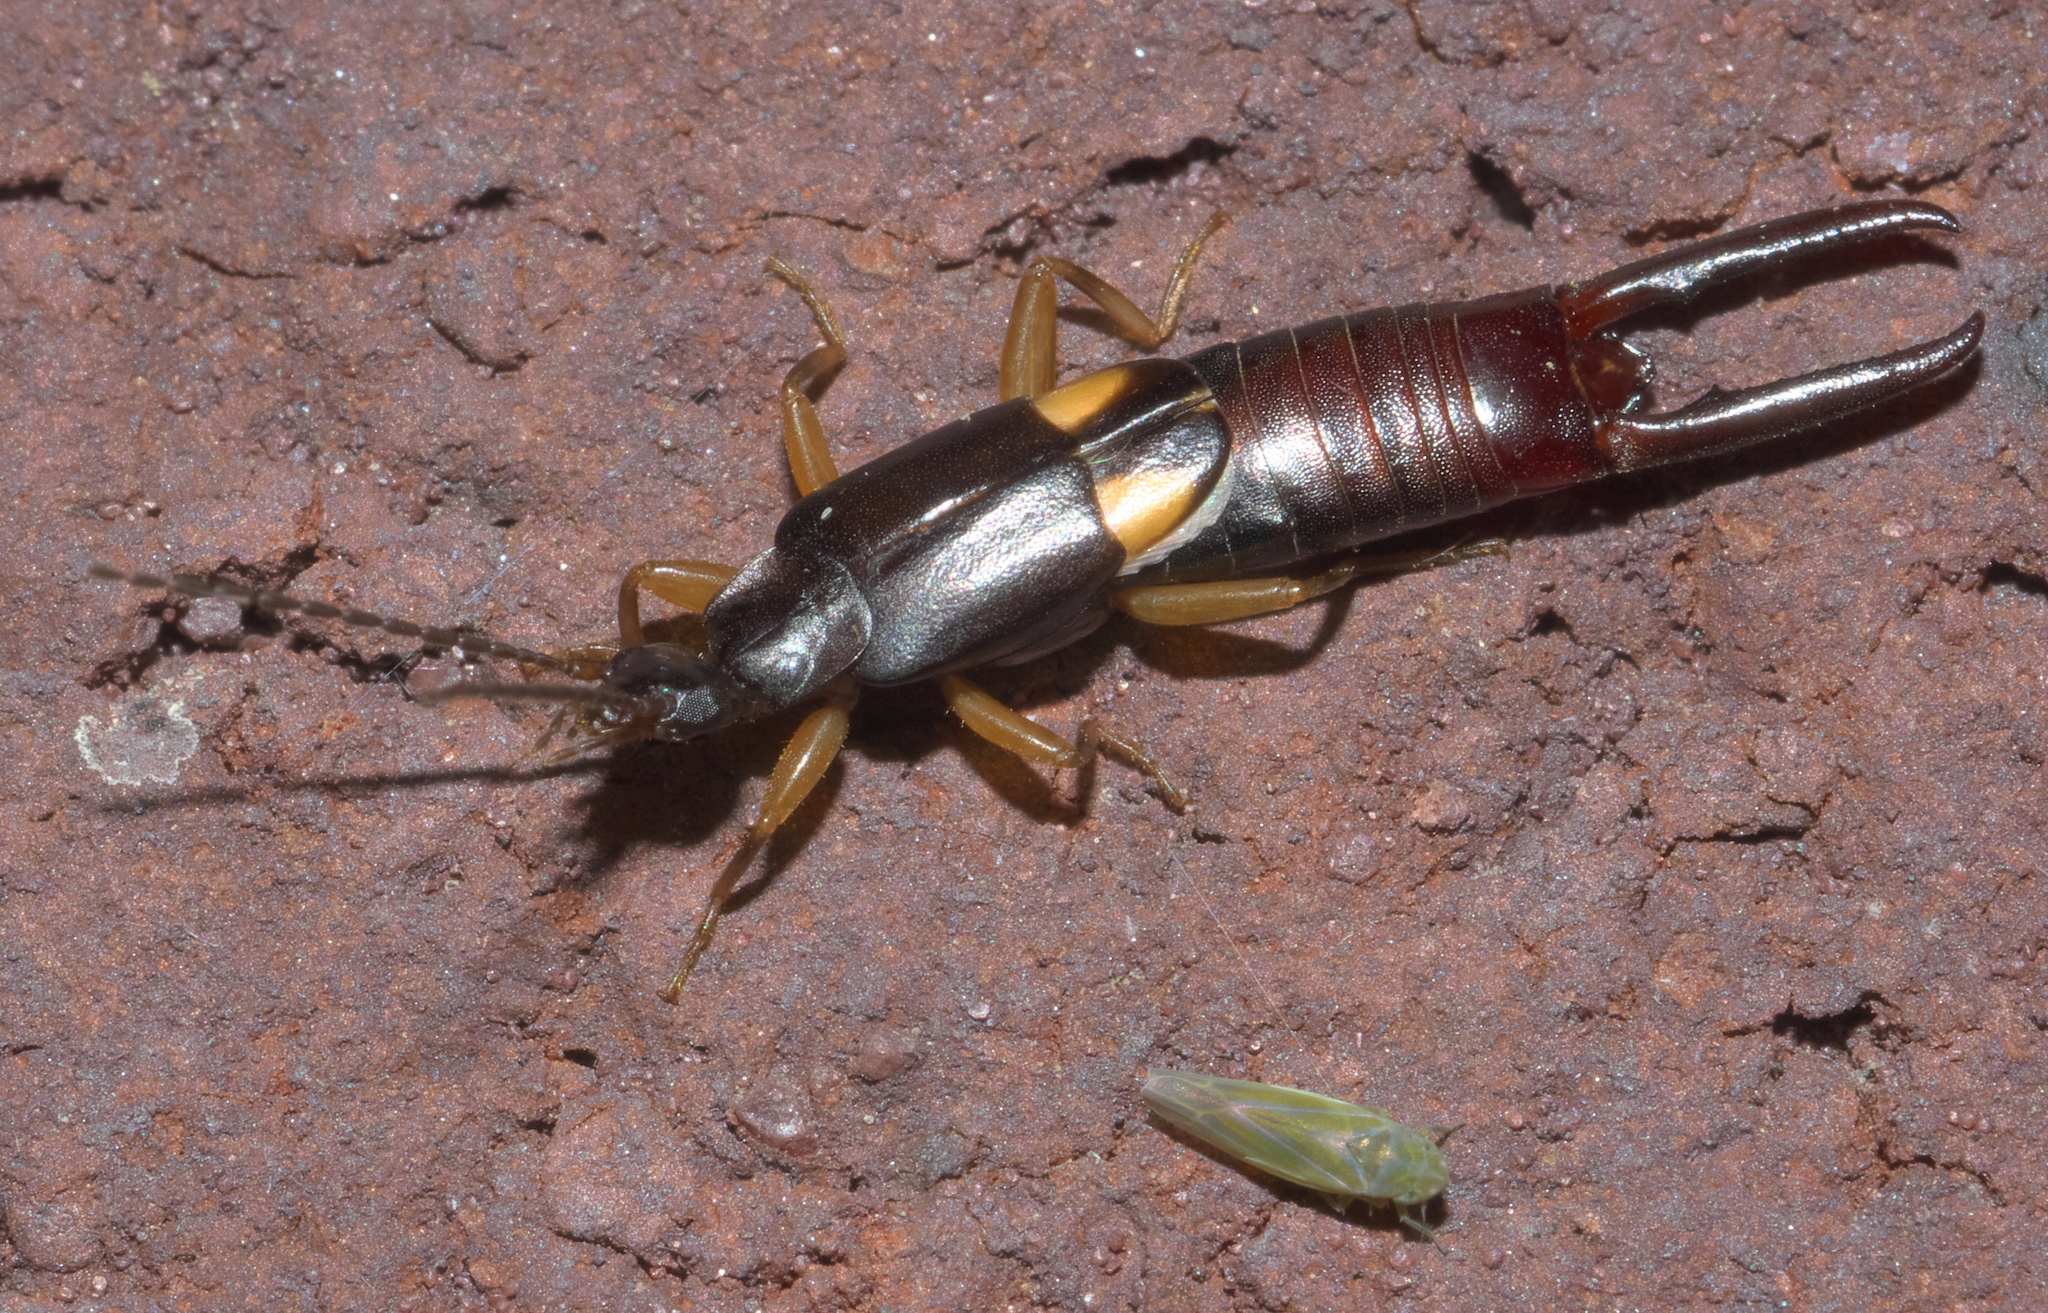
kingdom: Animalia
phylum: Arthropoda
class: Insecta
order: Dermaptera
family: Spongiphoridae
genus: Vostox
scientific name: Vostox brunneipennis
